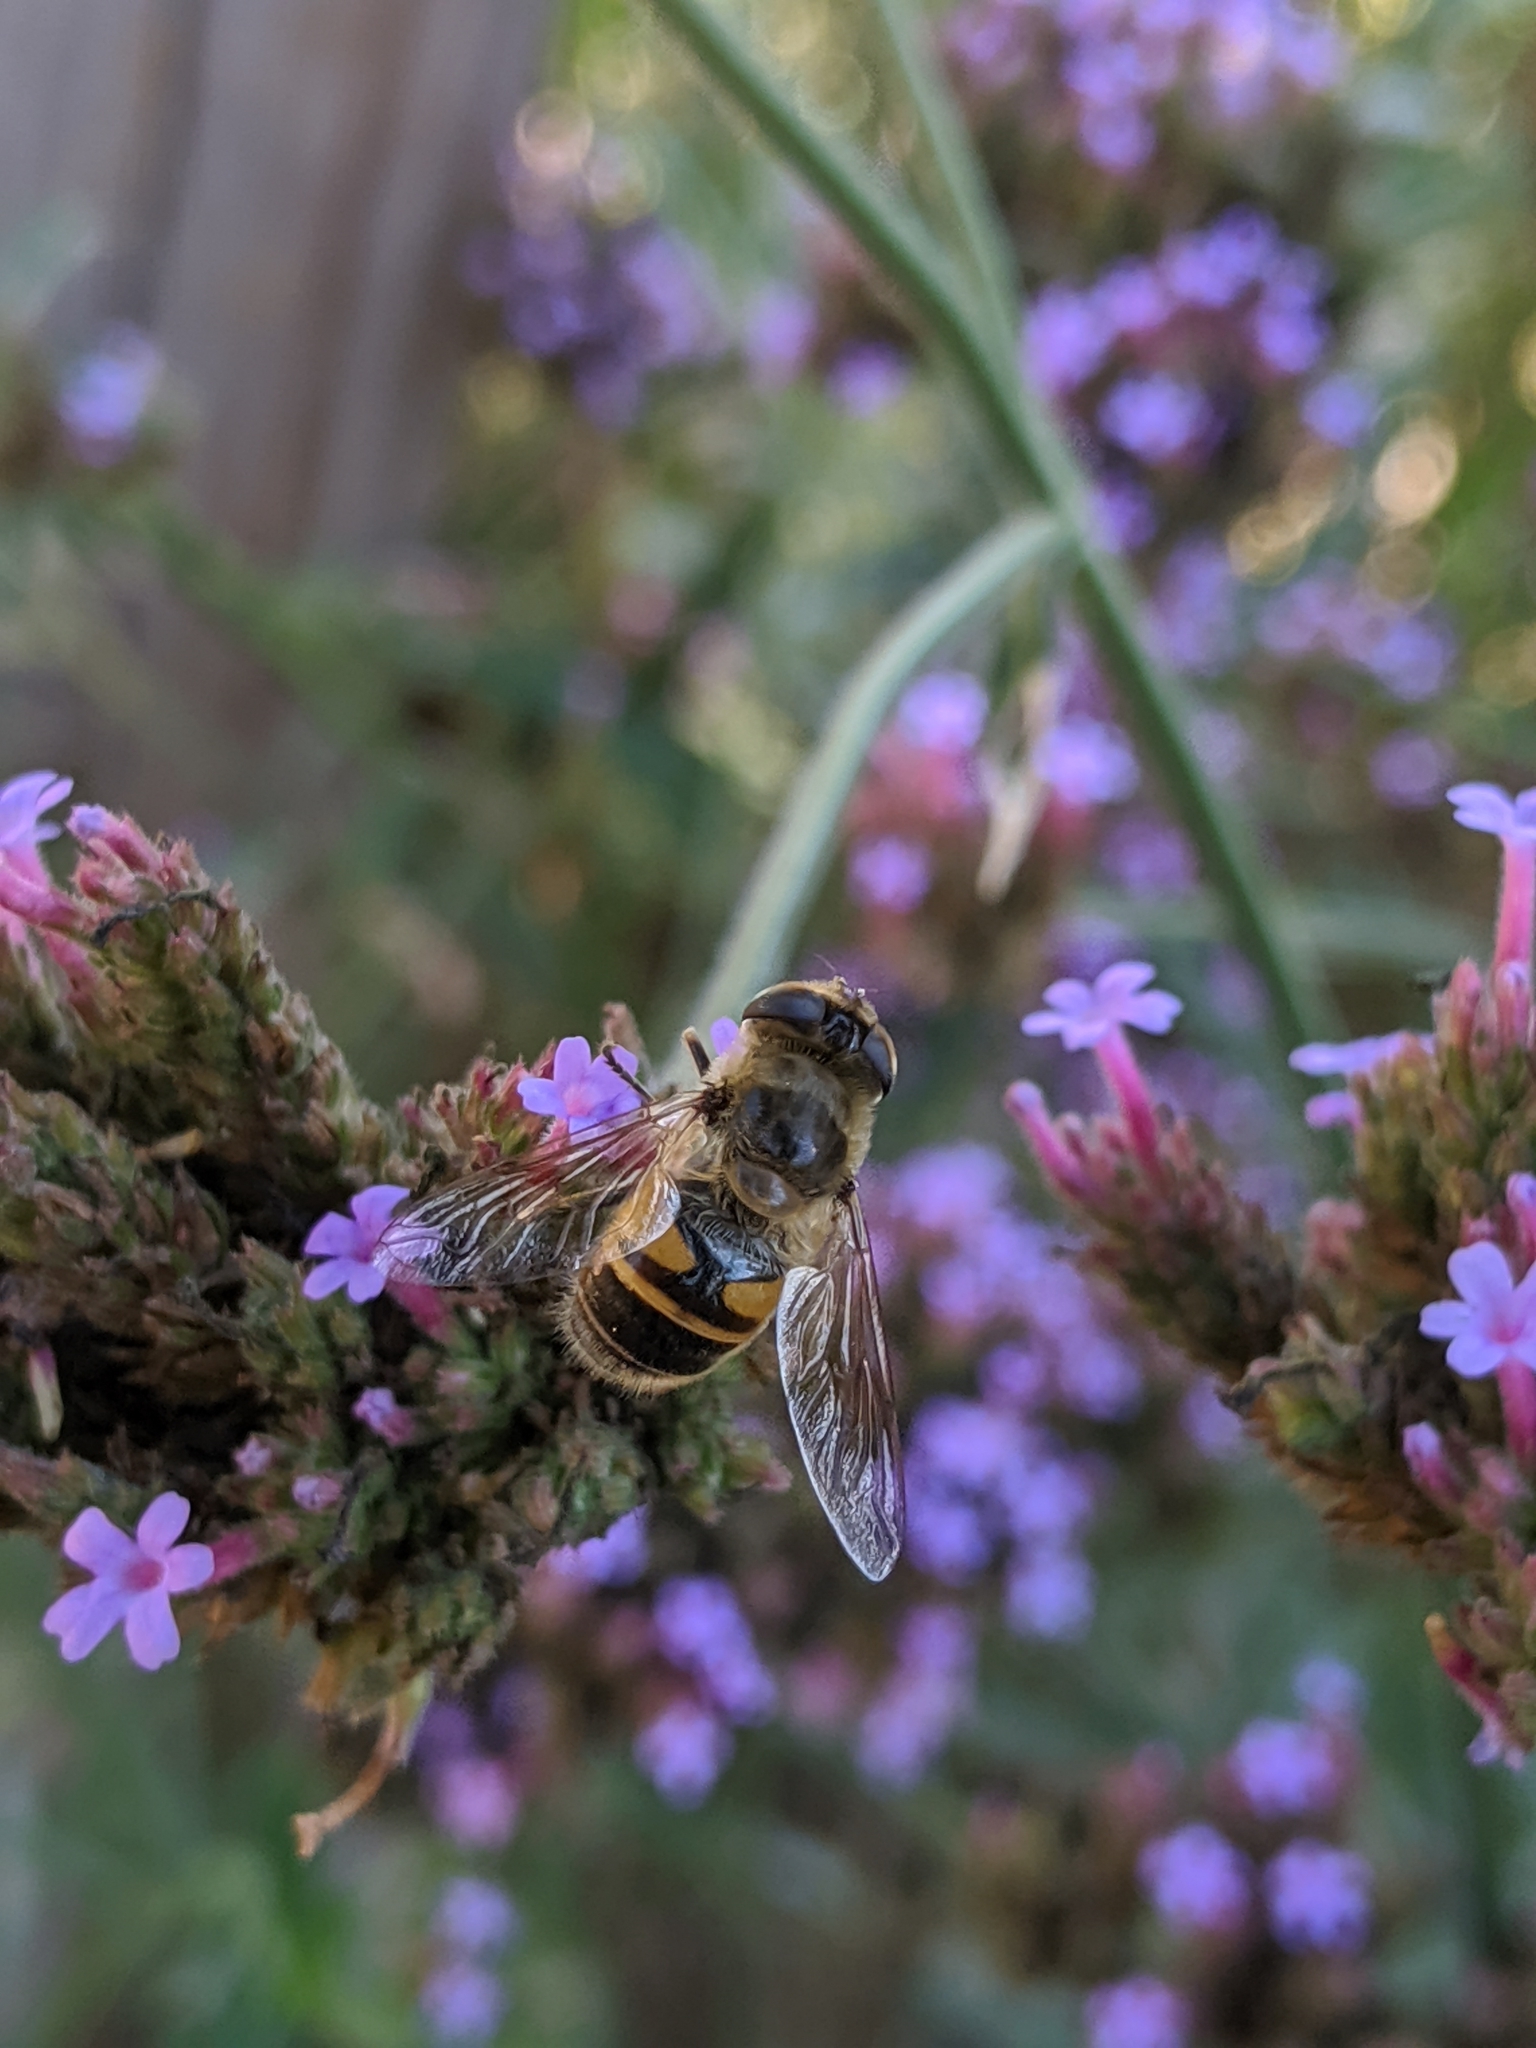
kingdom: Animalia
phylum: Arthropoda
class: Insecta
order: Diptera
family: Syrphidae
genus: Eristalis
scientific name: Eristalis tenax
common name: Drone fly
